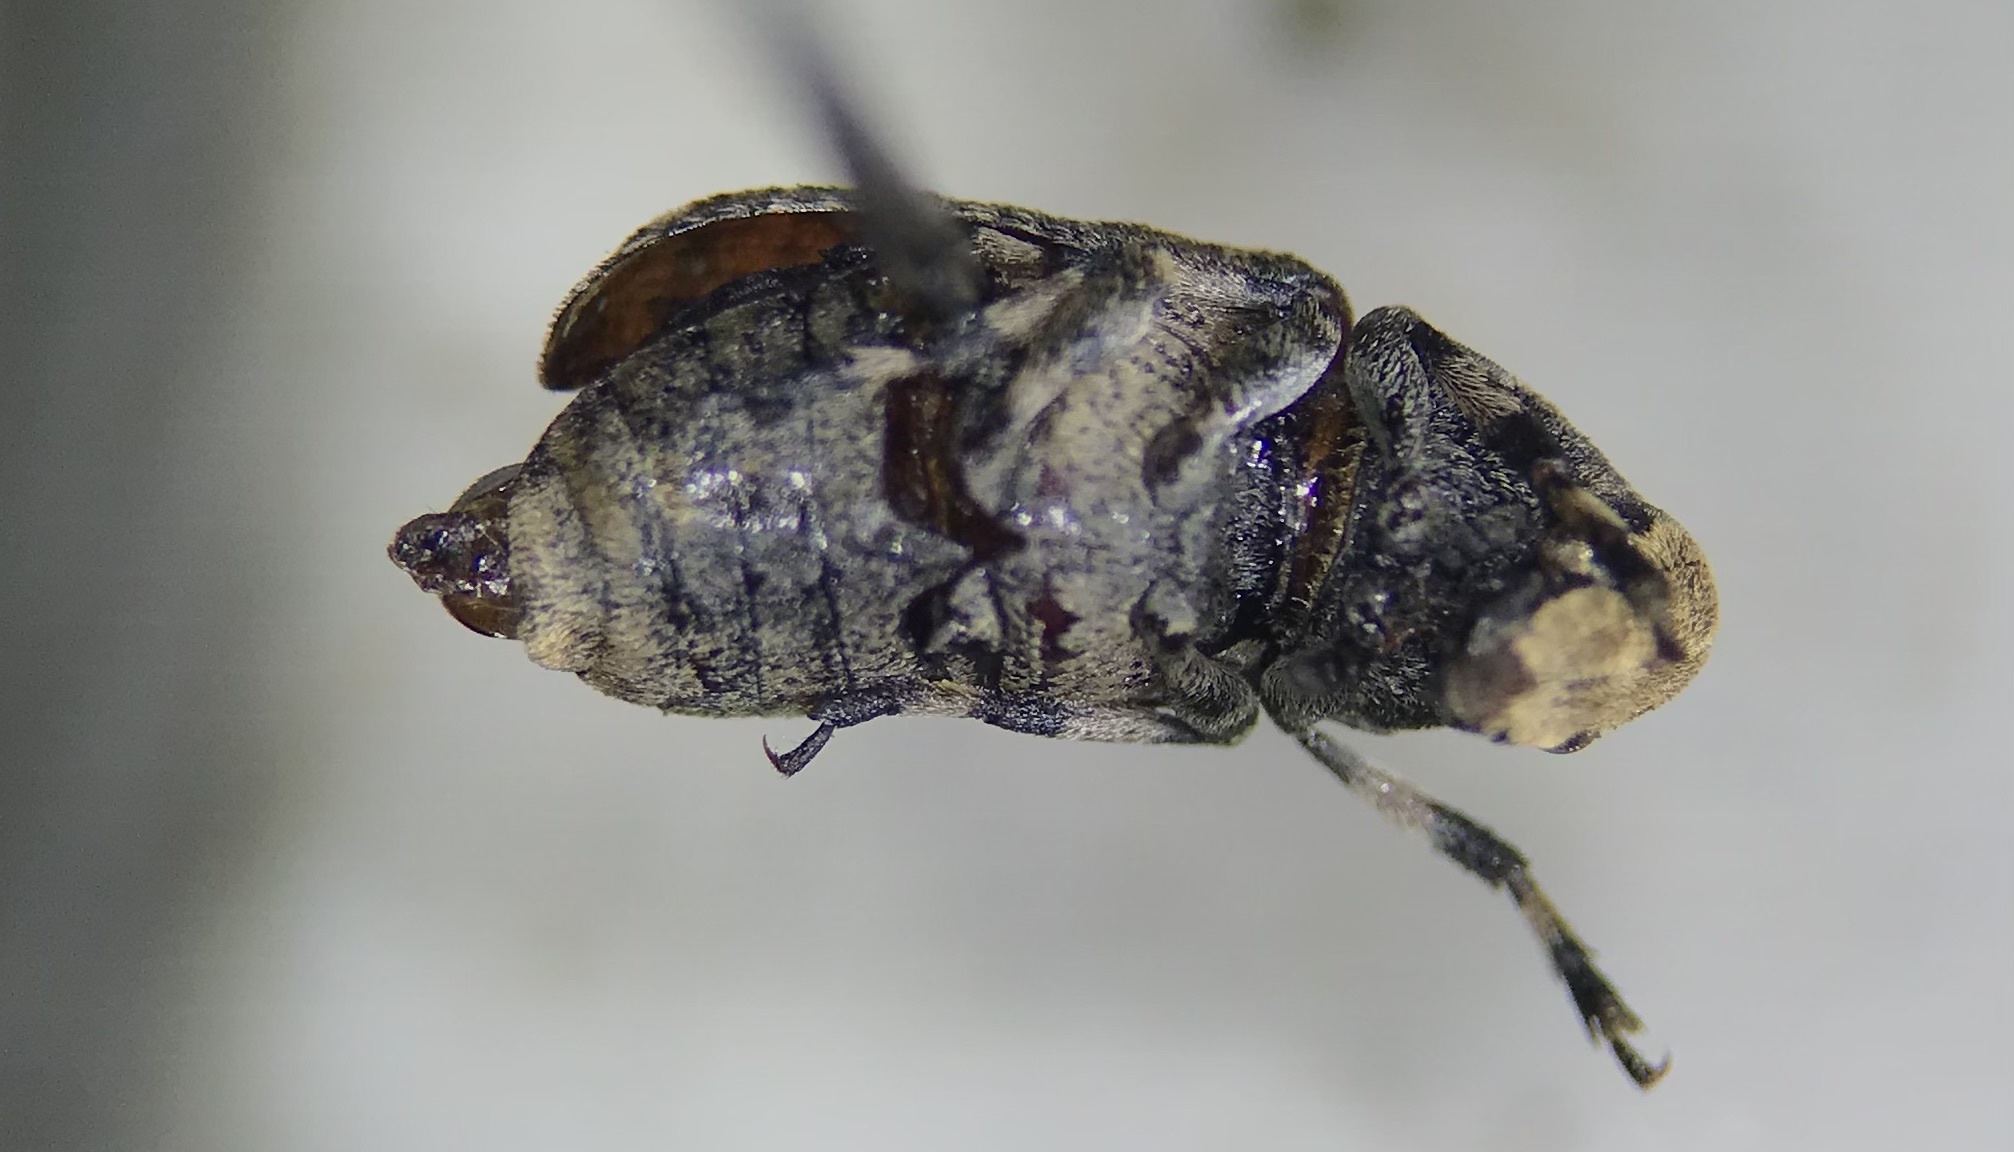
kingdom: Animalia
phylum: Arthropoda
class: Insecta
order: Coleoptera
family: Anthribidae
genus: Euparius
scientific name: Euparius marmoreus
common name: Marbled fungus weevil
